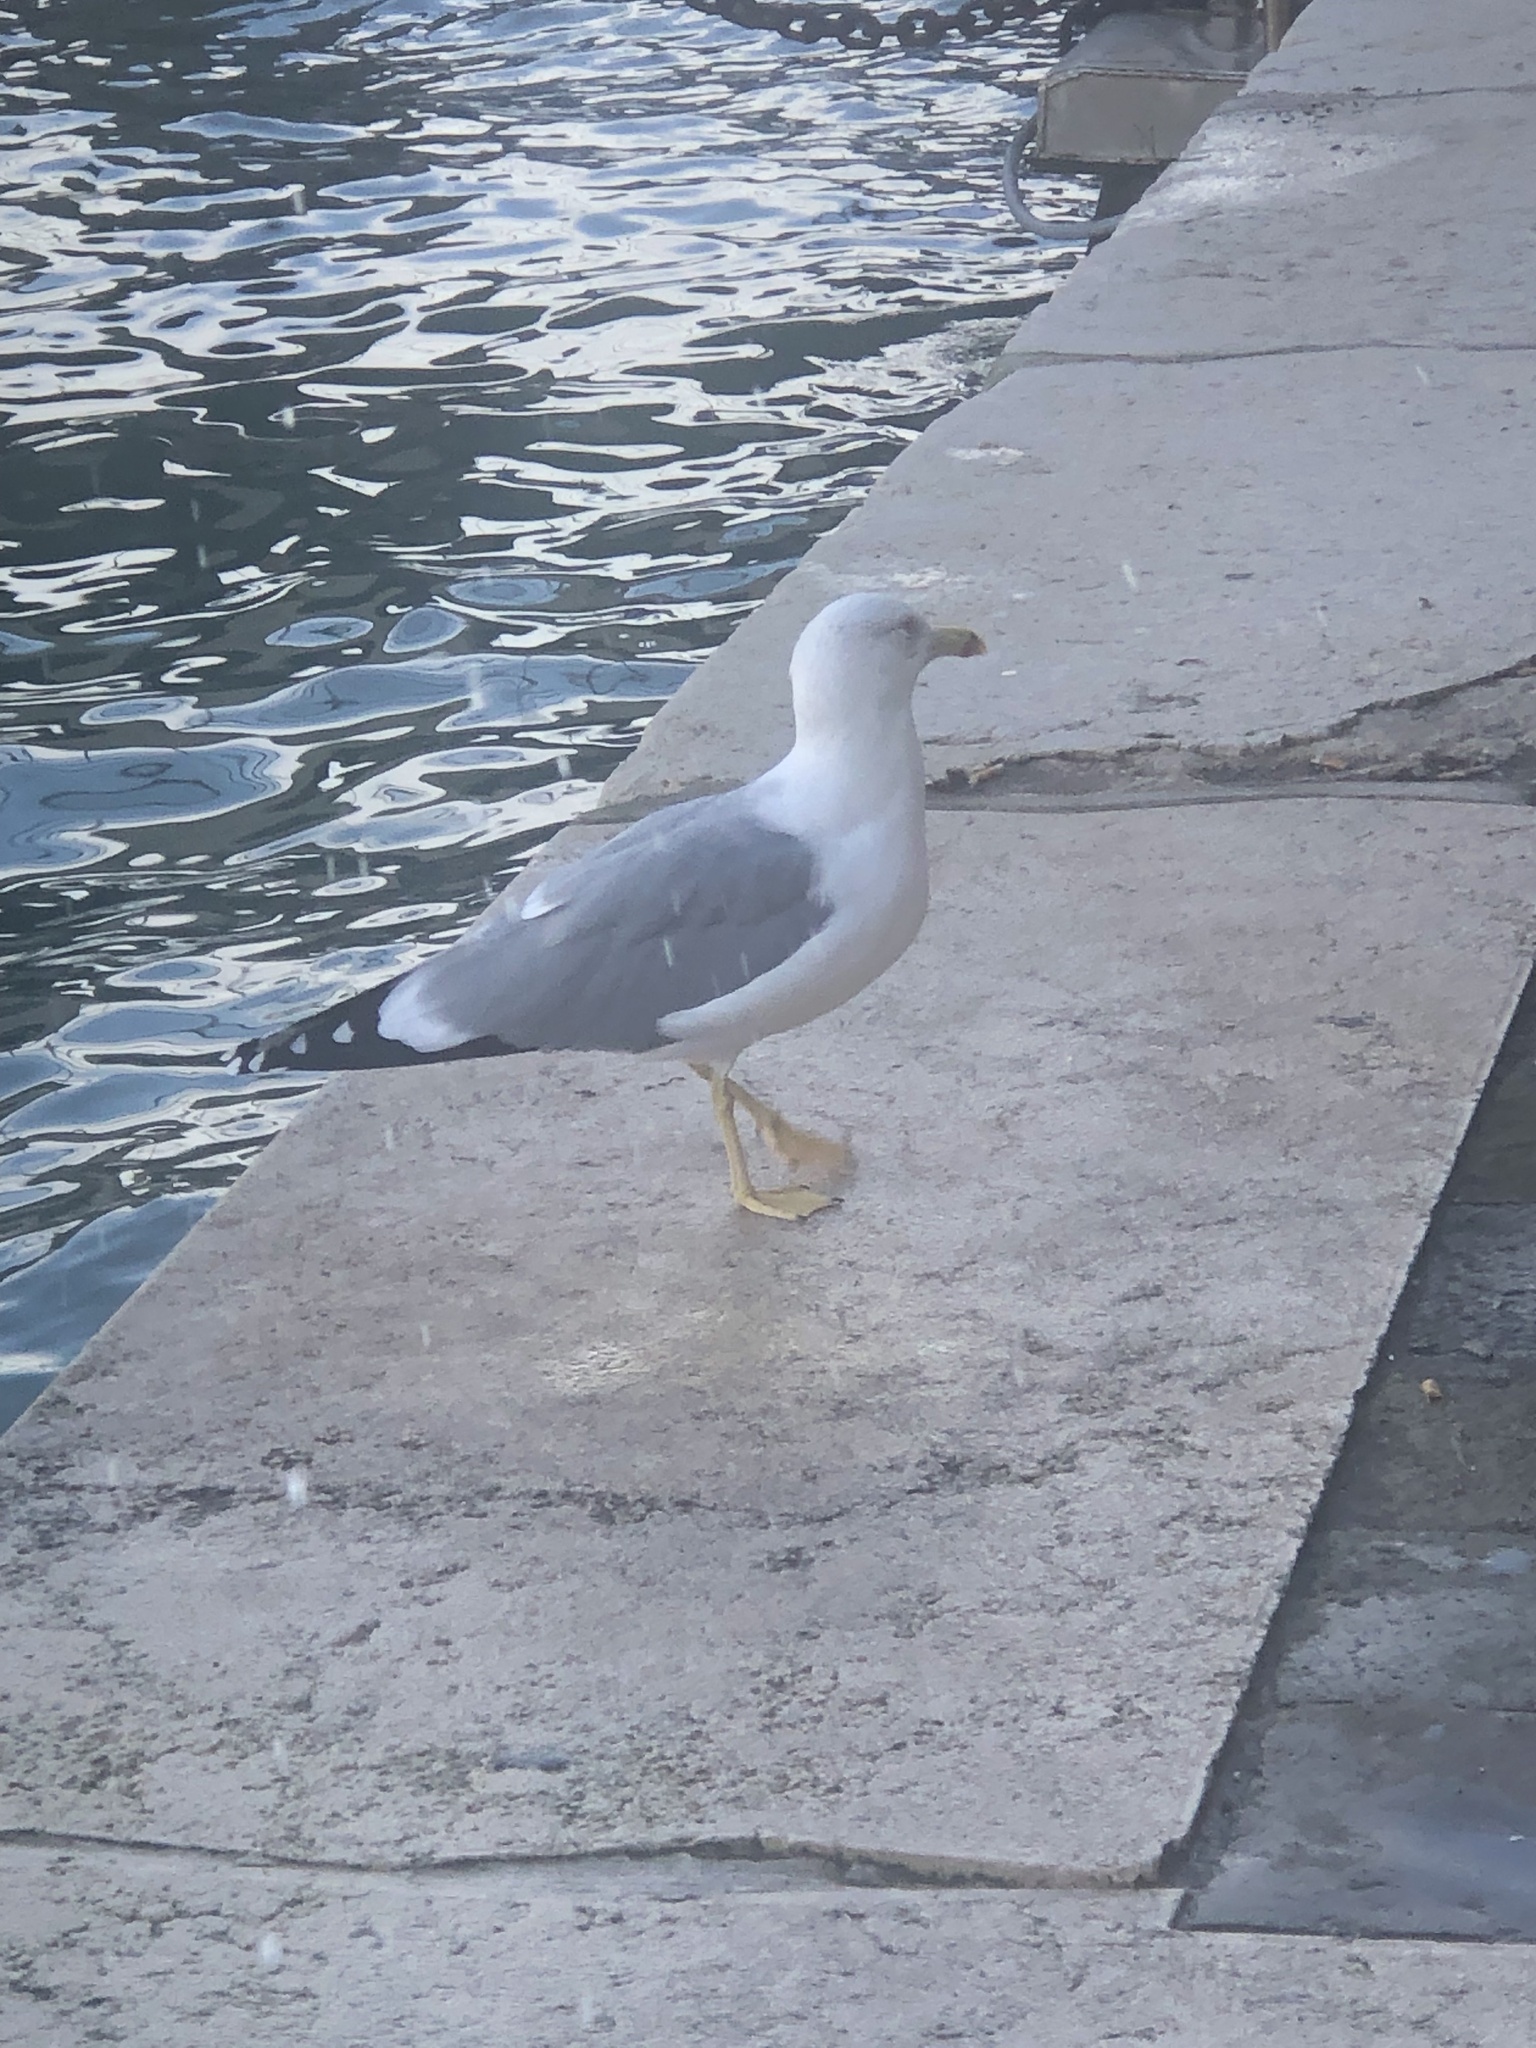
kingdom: Animalia
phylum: Chordata
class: Aves
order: Charadriiformes
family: Laridae
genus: Larus
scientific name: Larus michahellis
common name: Yellow-legged gull
